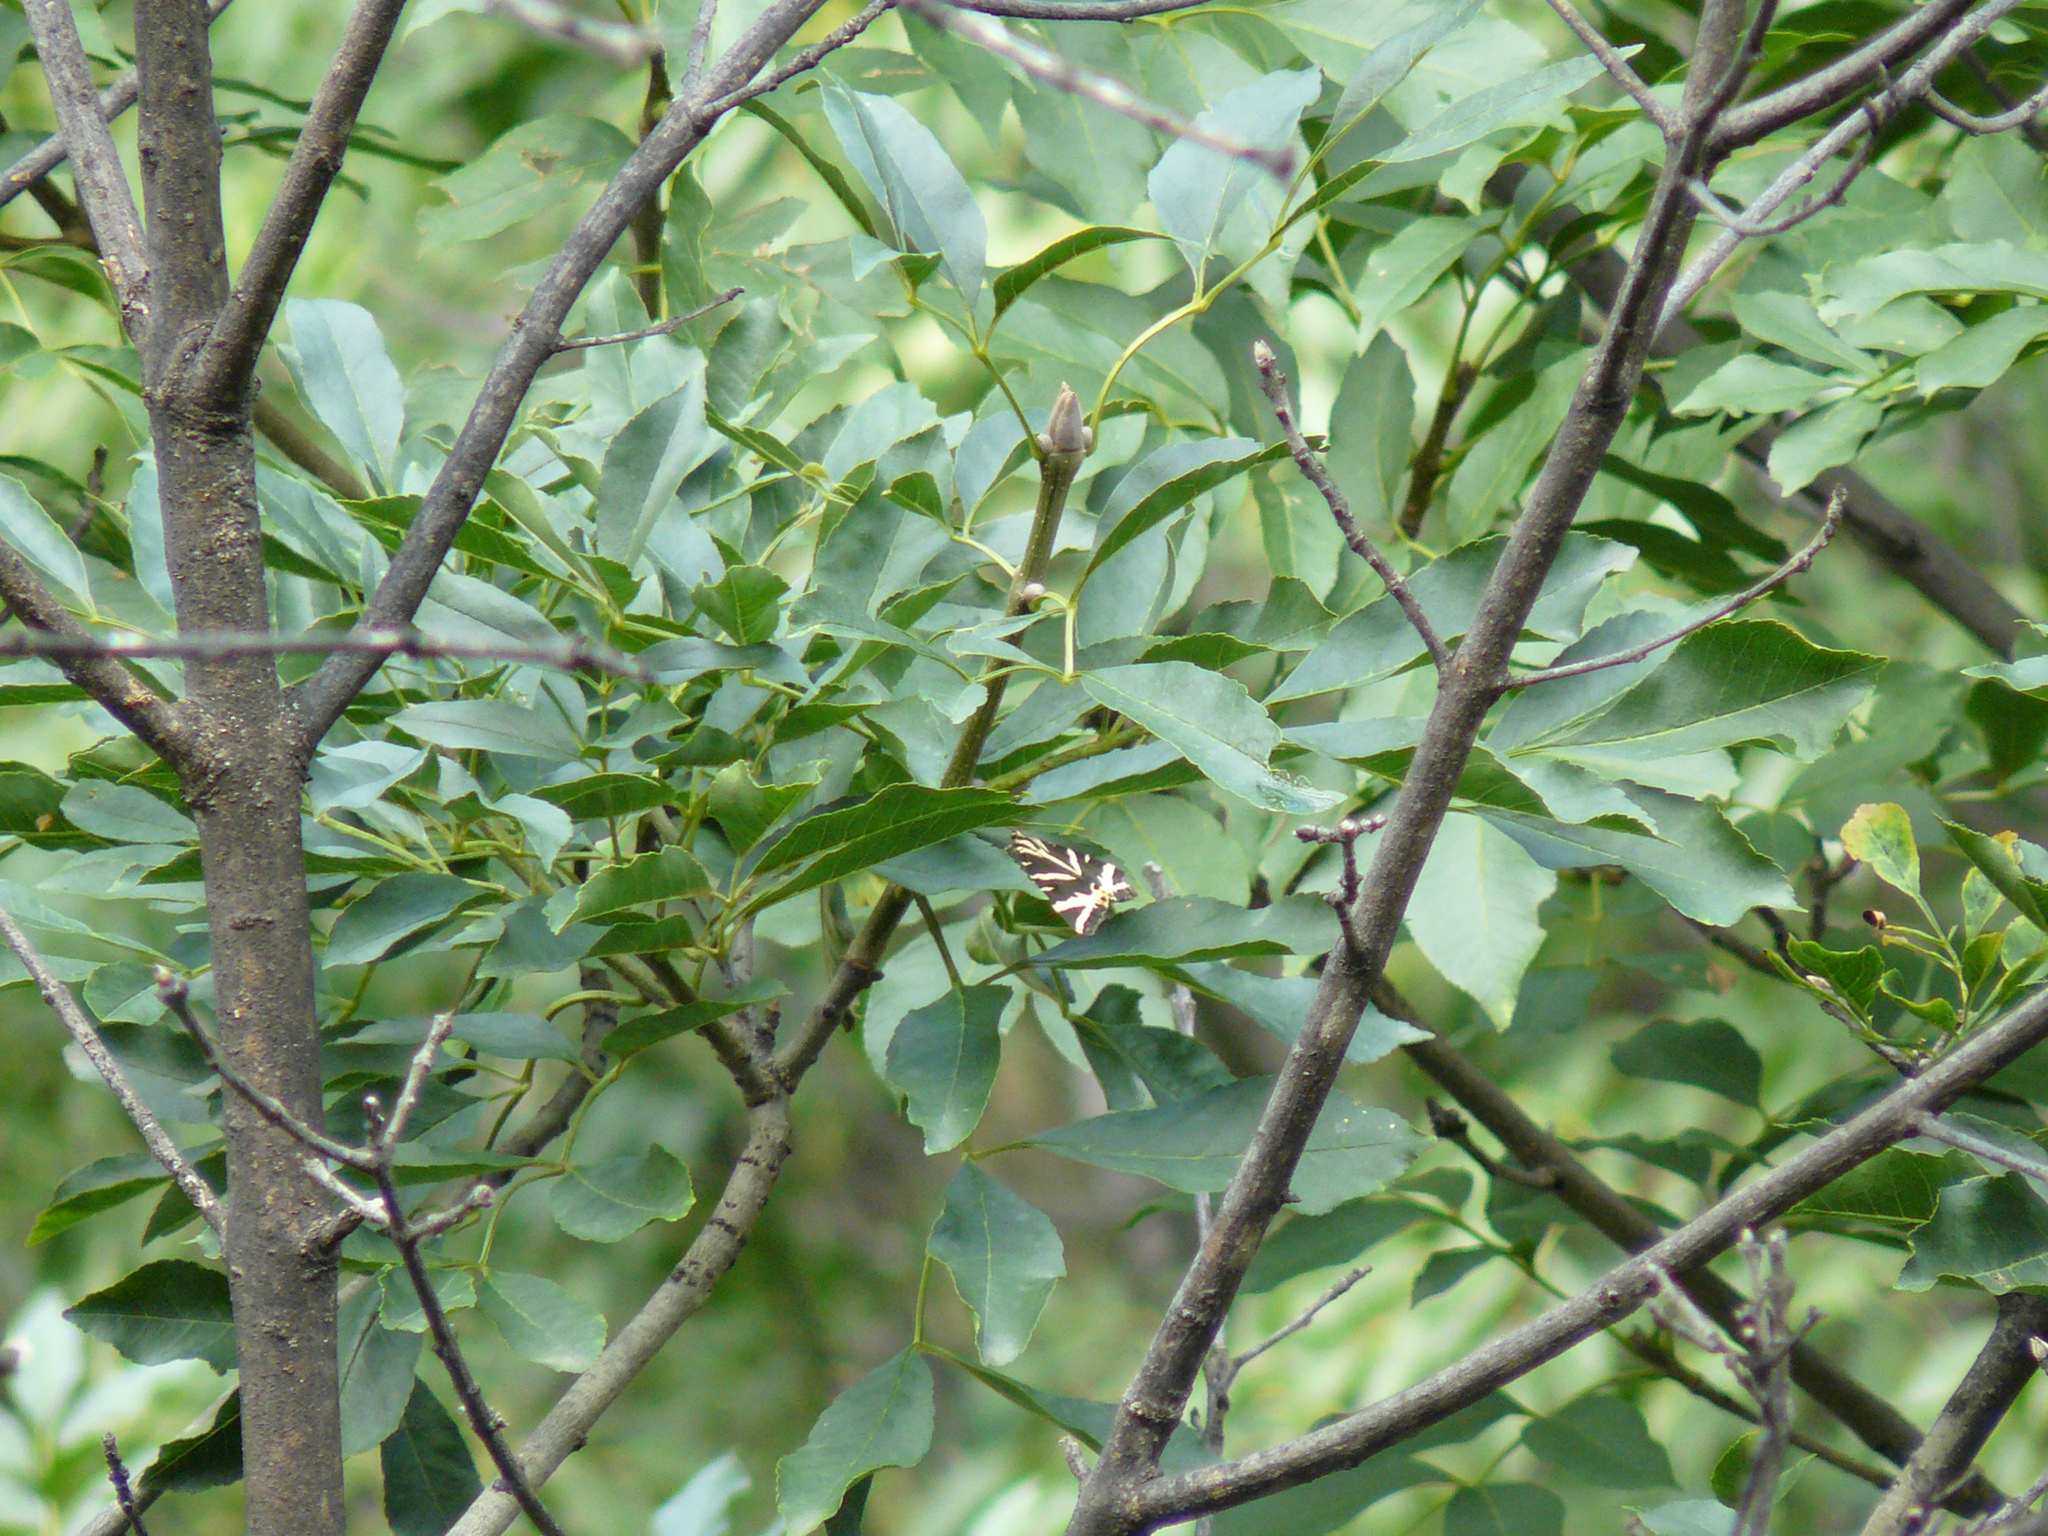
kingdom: Animalia
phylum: Arthropoda
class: Insecta
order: Lepidoptera
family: Erebidae
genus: Euplagia
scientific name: Euplagia quadripunctaria
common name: Jersey tiger
